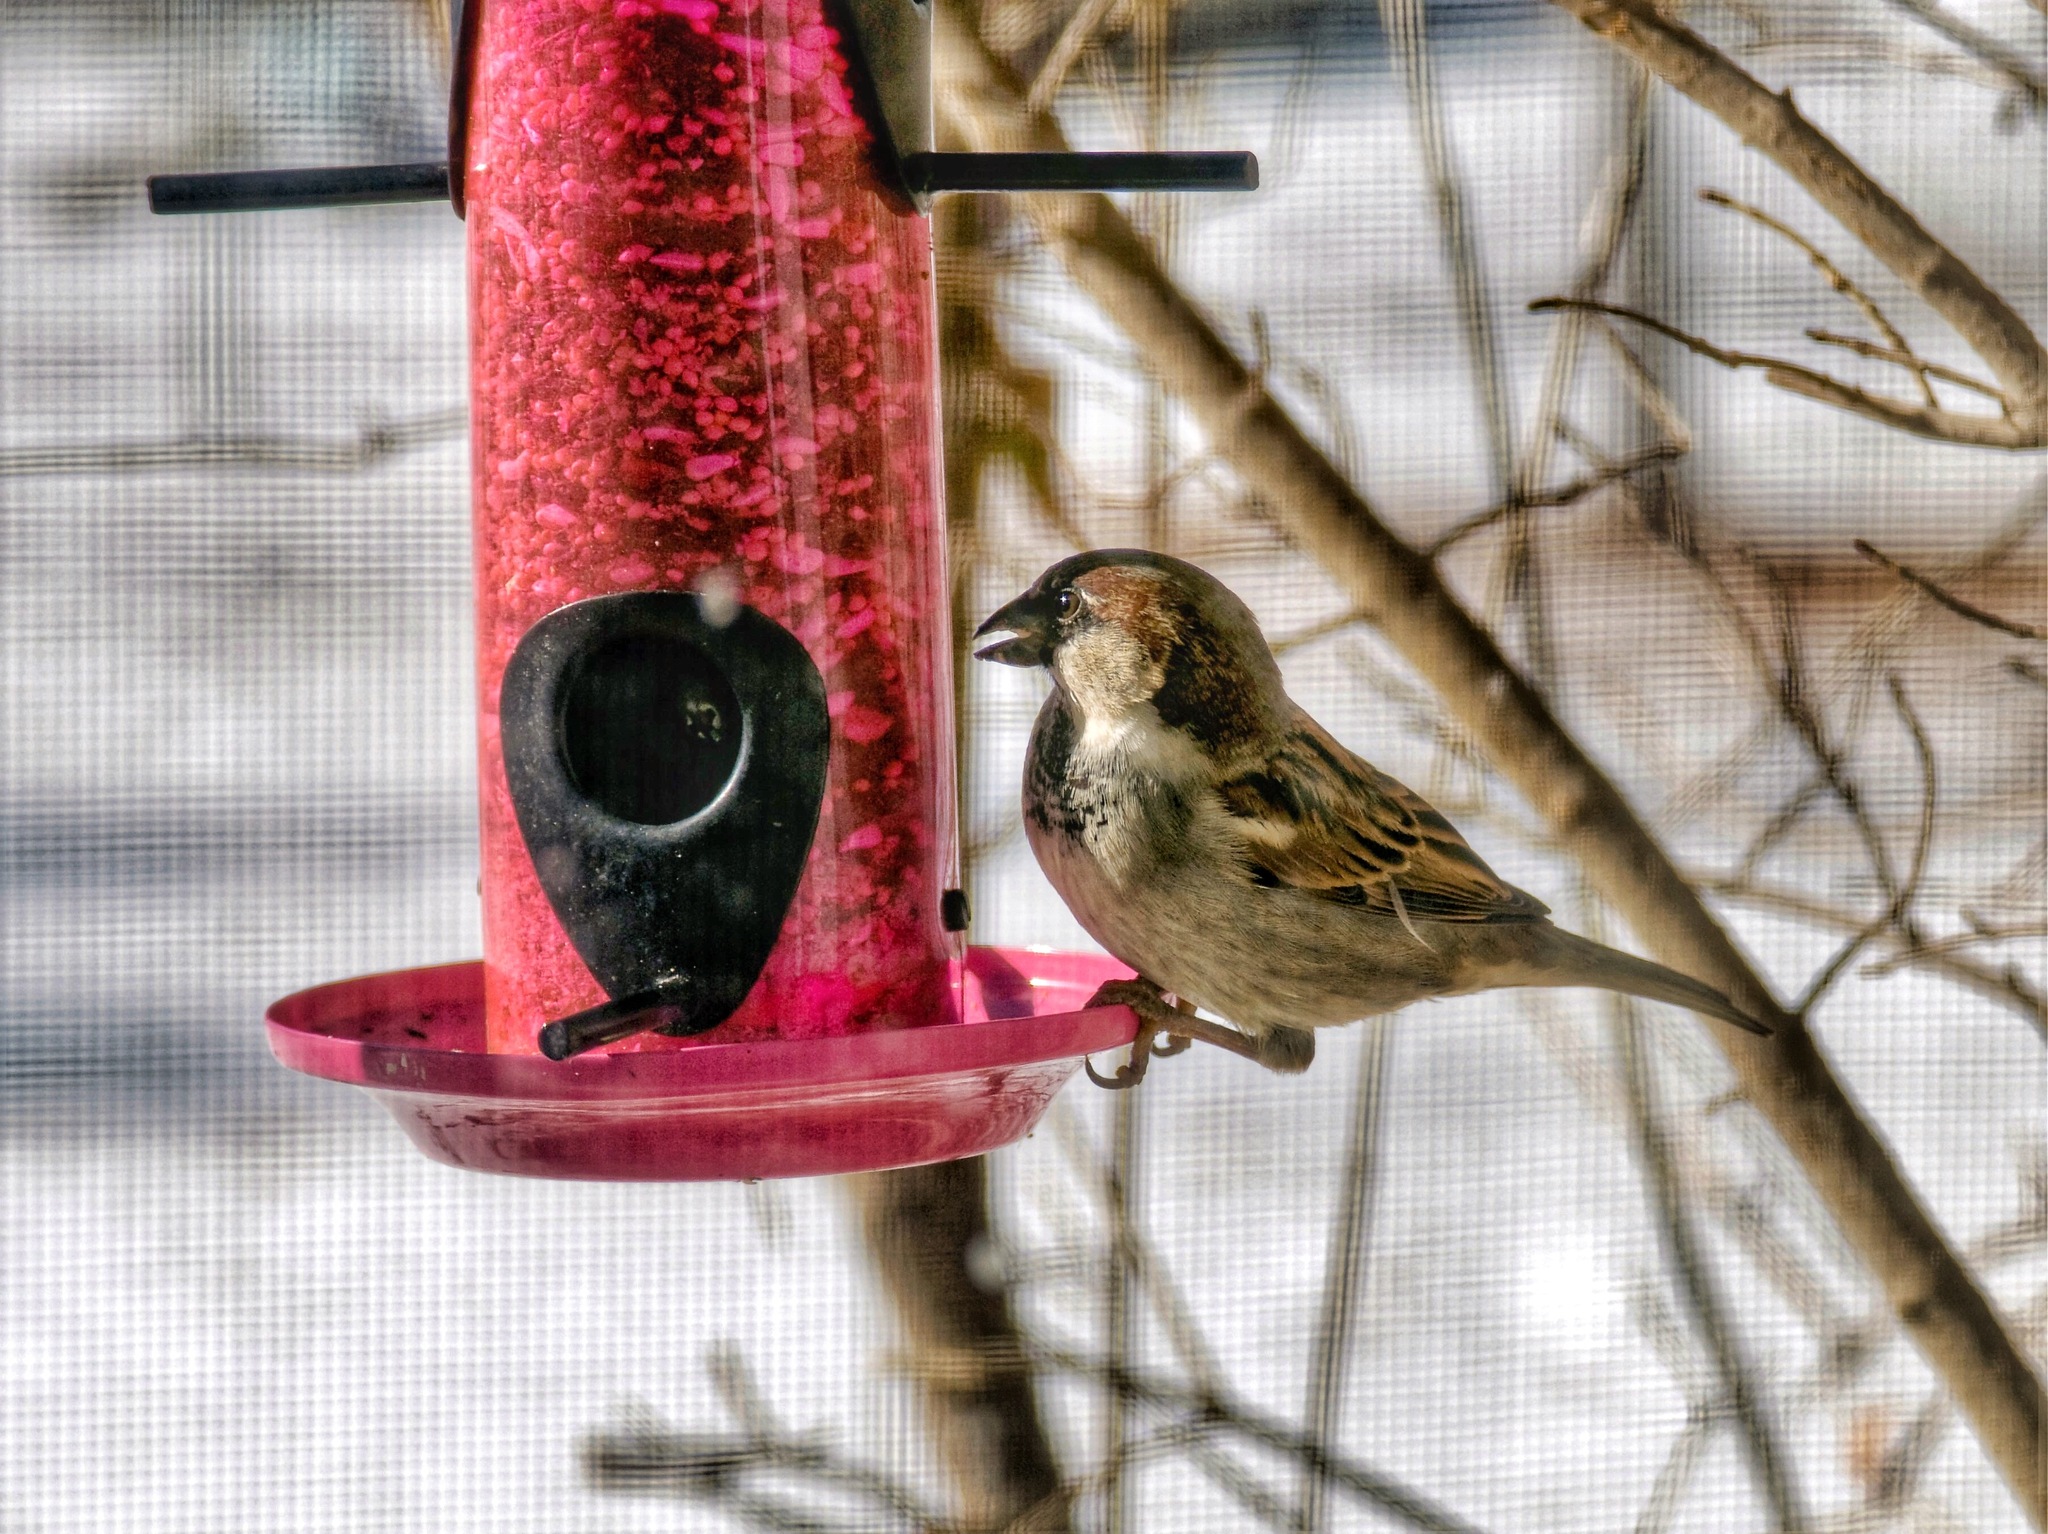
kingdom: Animalia
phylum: Chordata
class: Aves
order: Passeriformes
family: Passeridae
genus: Passer
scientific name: Passer domesticus
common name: House sparrow
